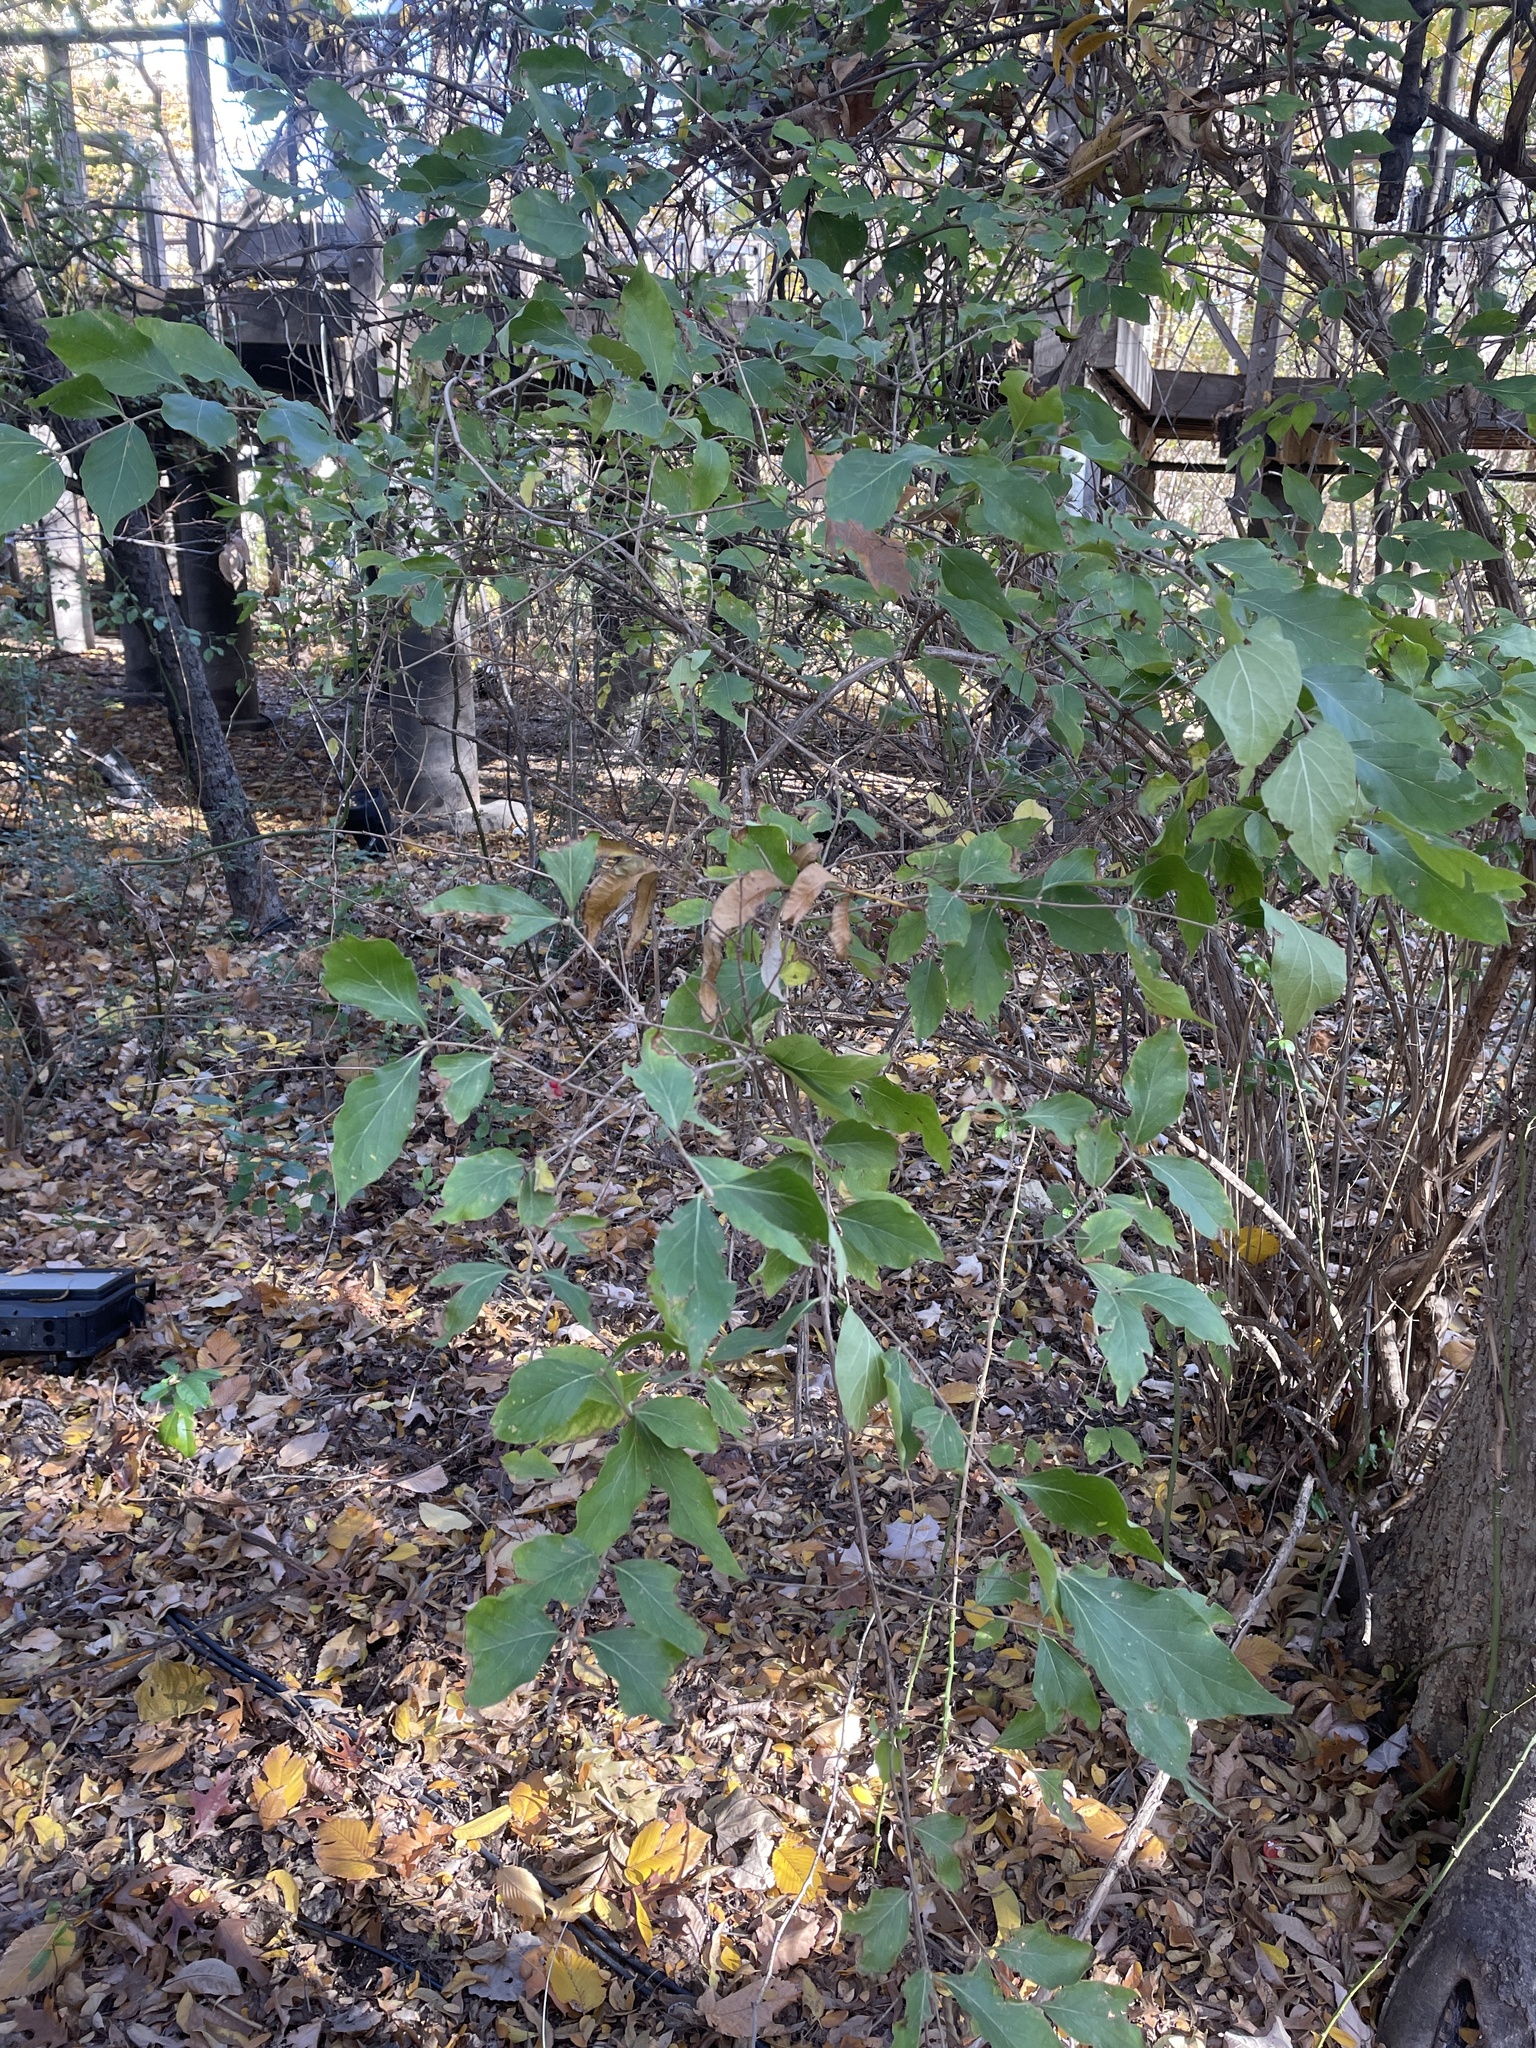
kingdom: Plantae
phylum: Tracheophyta
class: Magnoliopsida
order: Dipsacales
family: Caprifoliaceae
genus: Lonicera
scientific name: Lonicera maackii
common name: Amur honeysuckle
